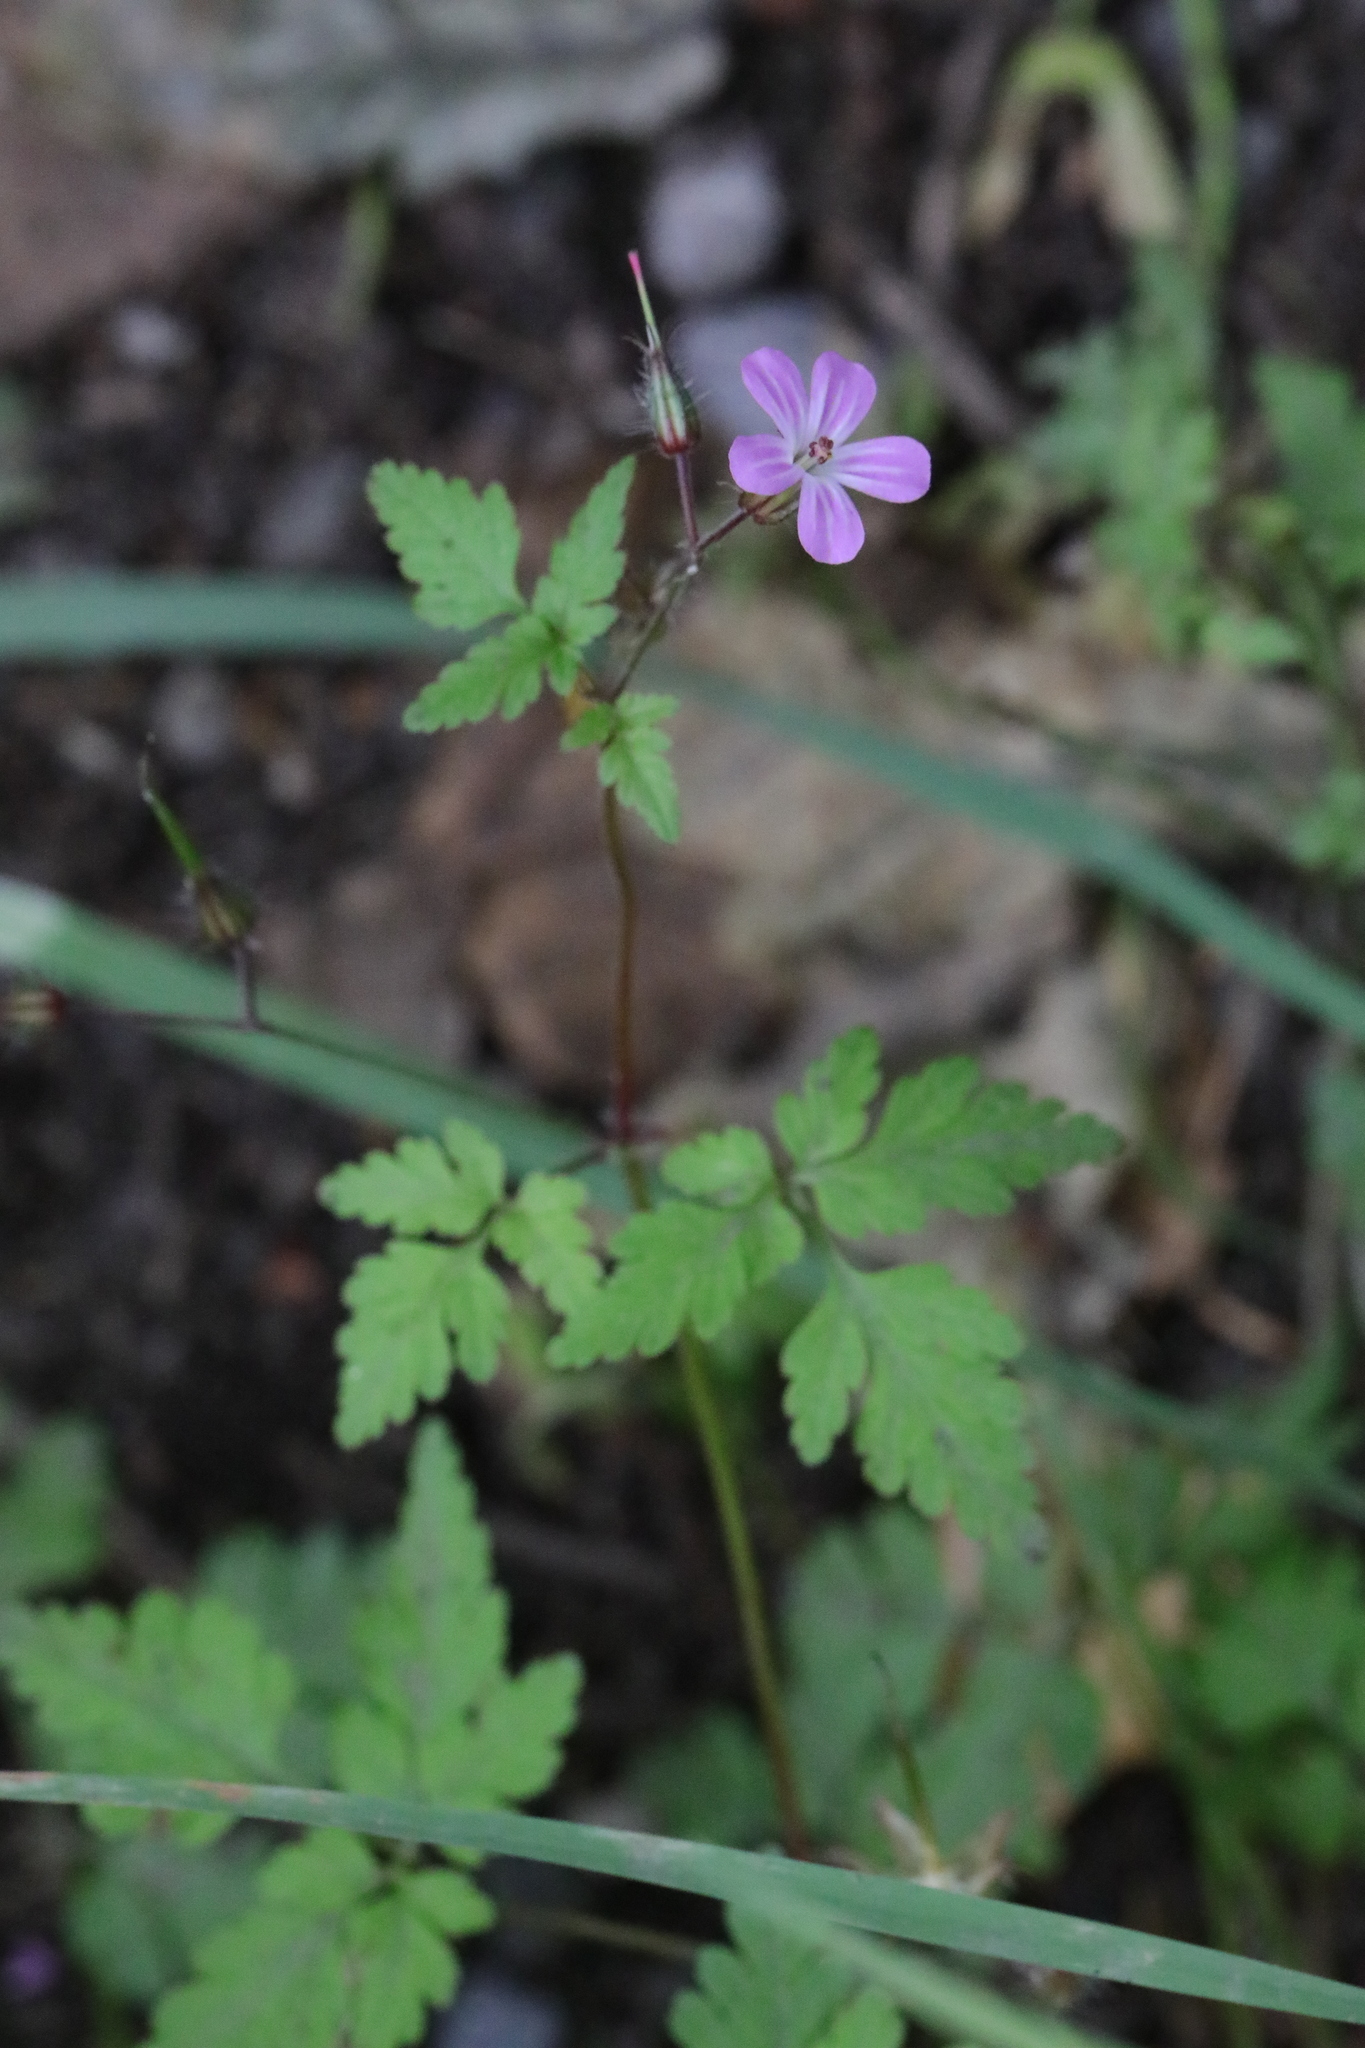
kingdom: Plantae
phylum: Tracheophyta
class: Magnoliopsida
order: Geraniales
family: Geraniaceae
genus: Geranium
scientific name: Geranium robertianum
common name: Herb-robert
